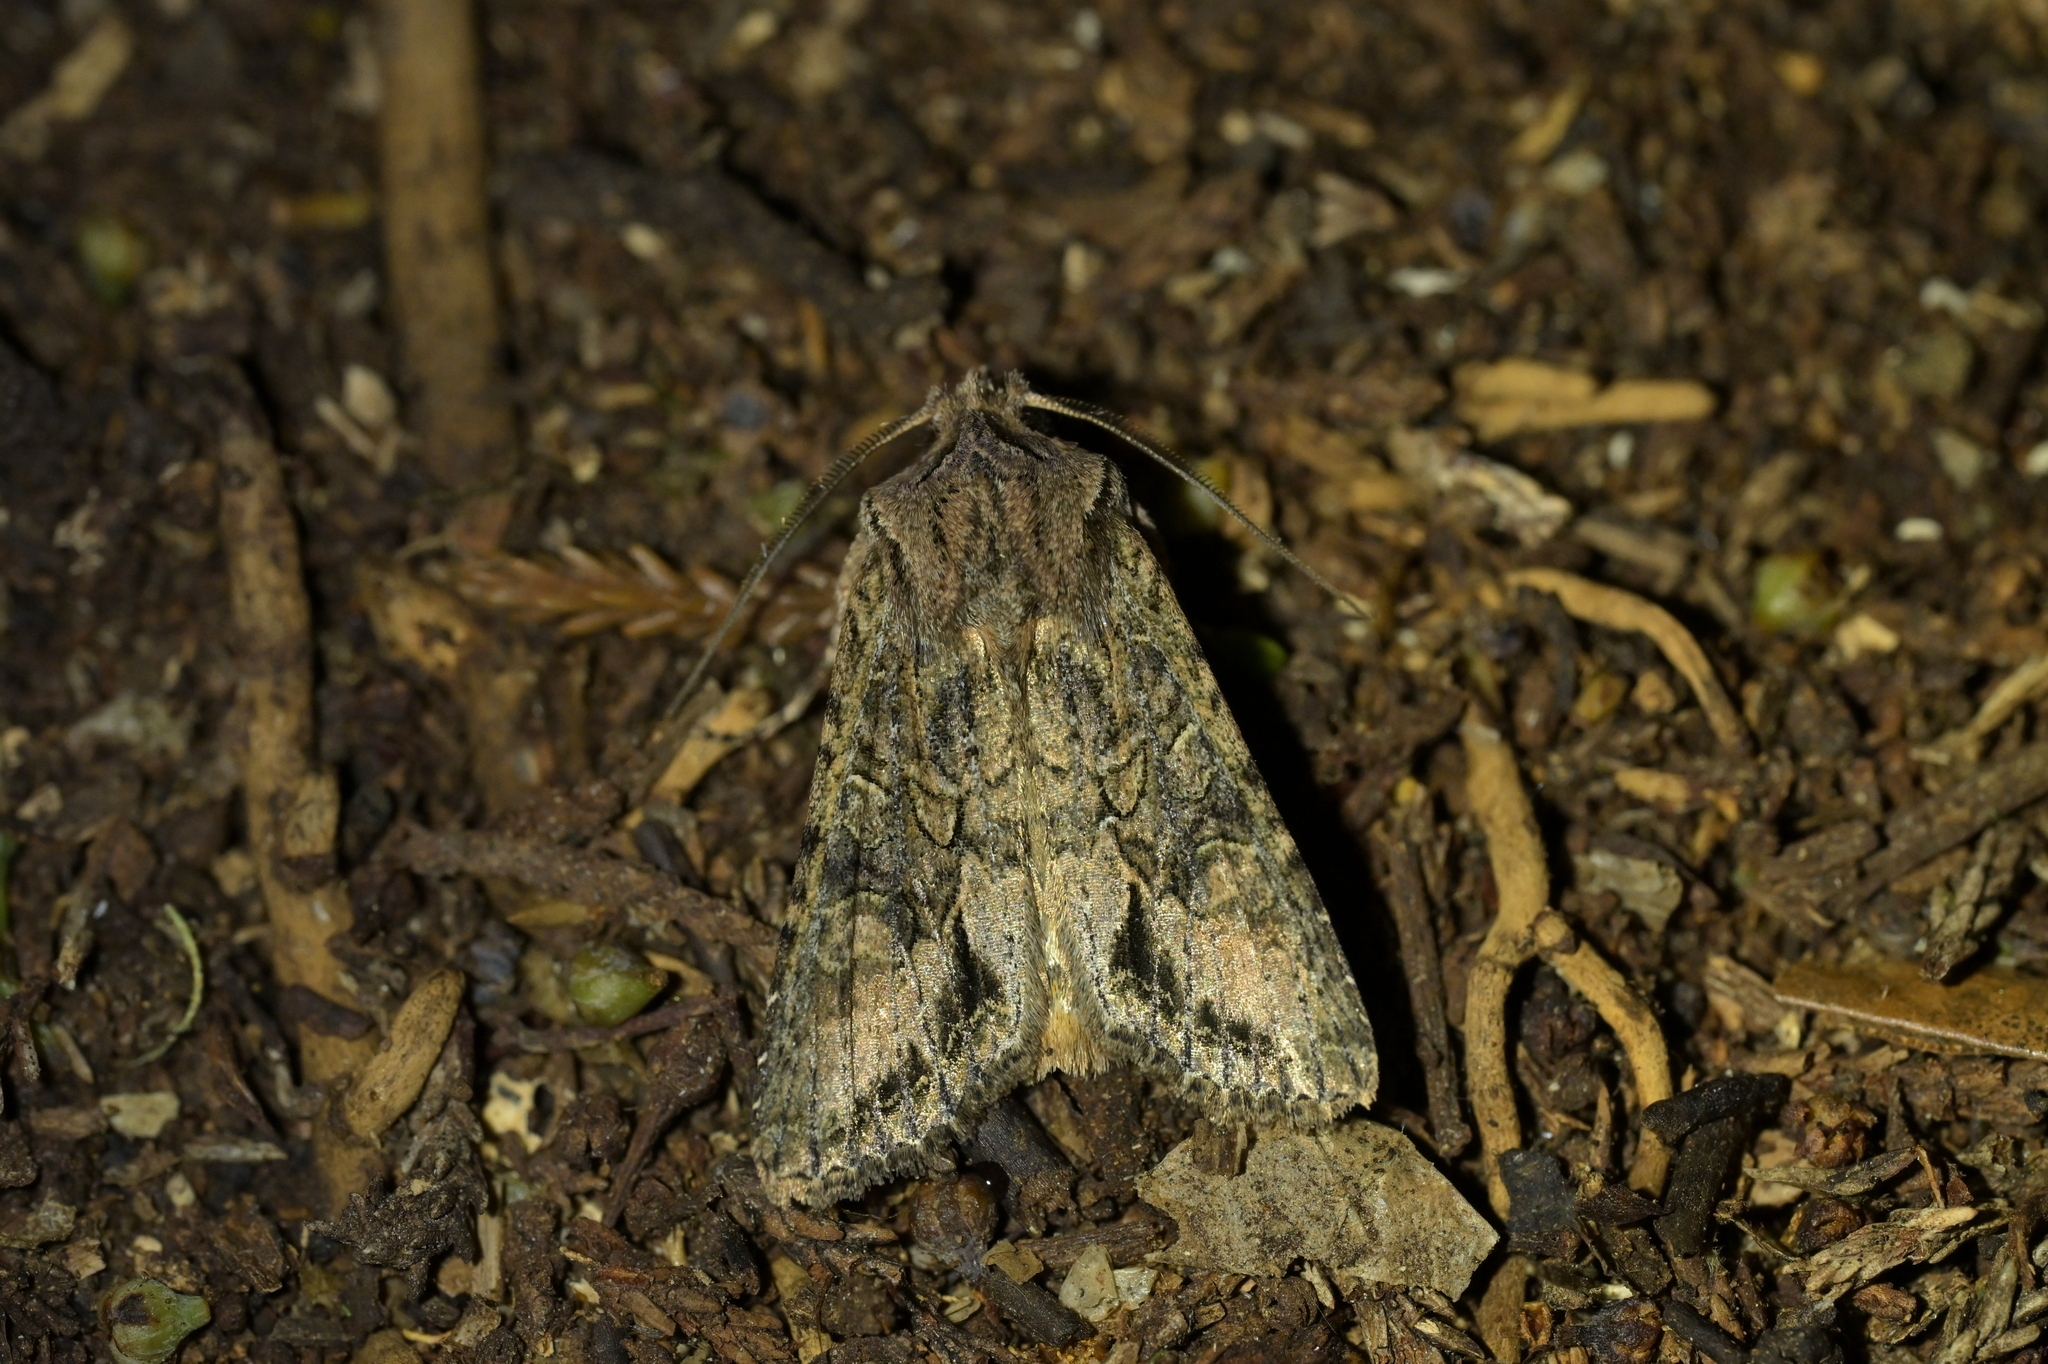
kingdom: Animalia
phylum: Arthropoda
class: Insecta
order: Lepidoptera
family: Noctuidae
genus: Ichneutica
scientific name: Ichneutica mutans
